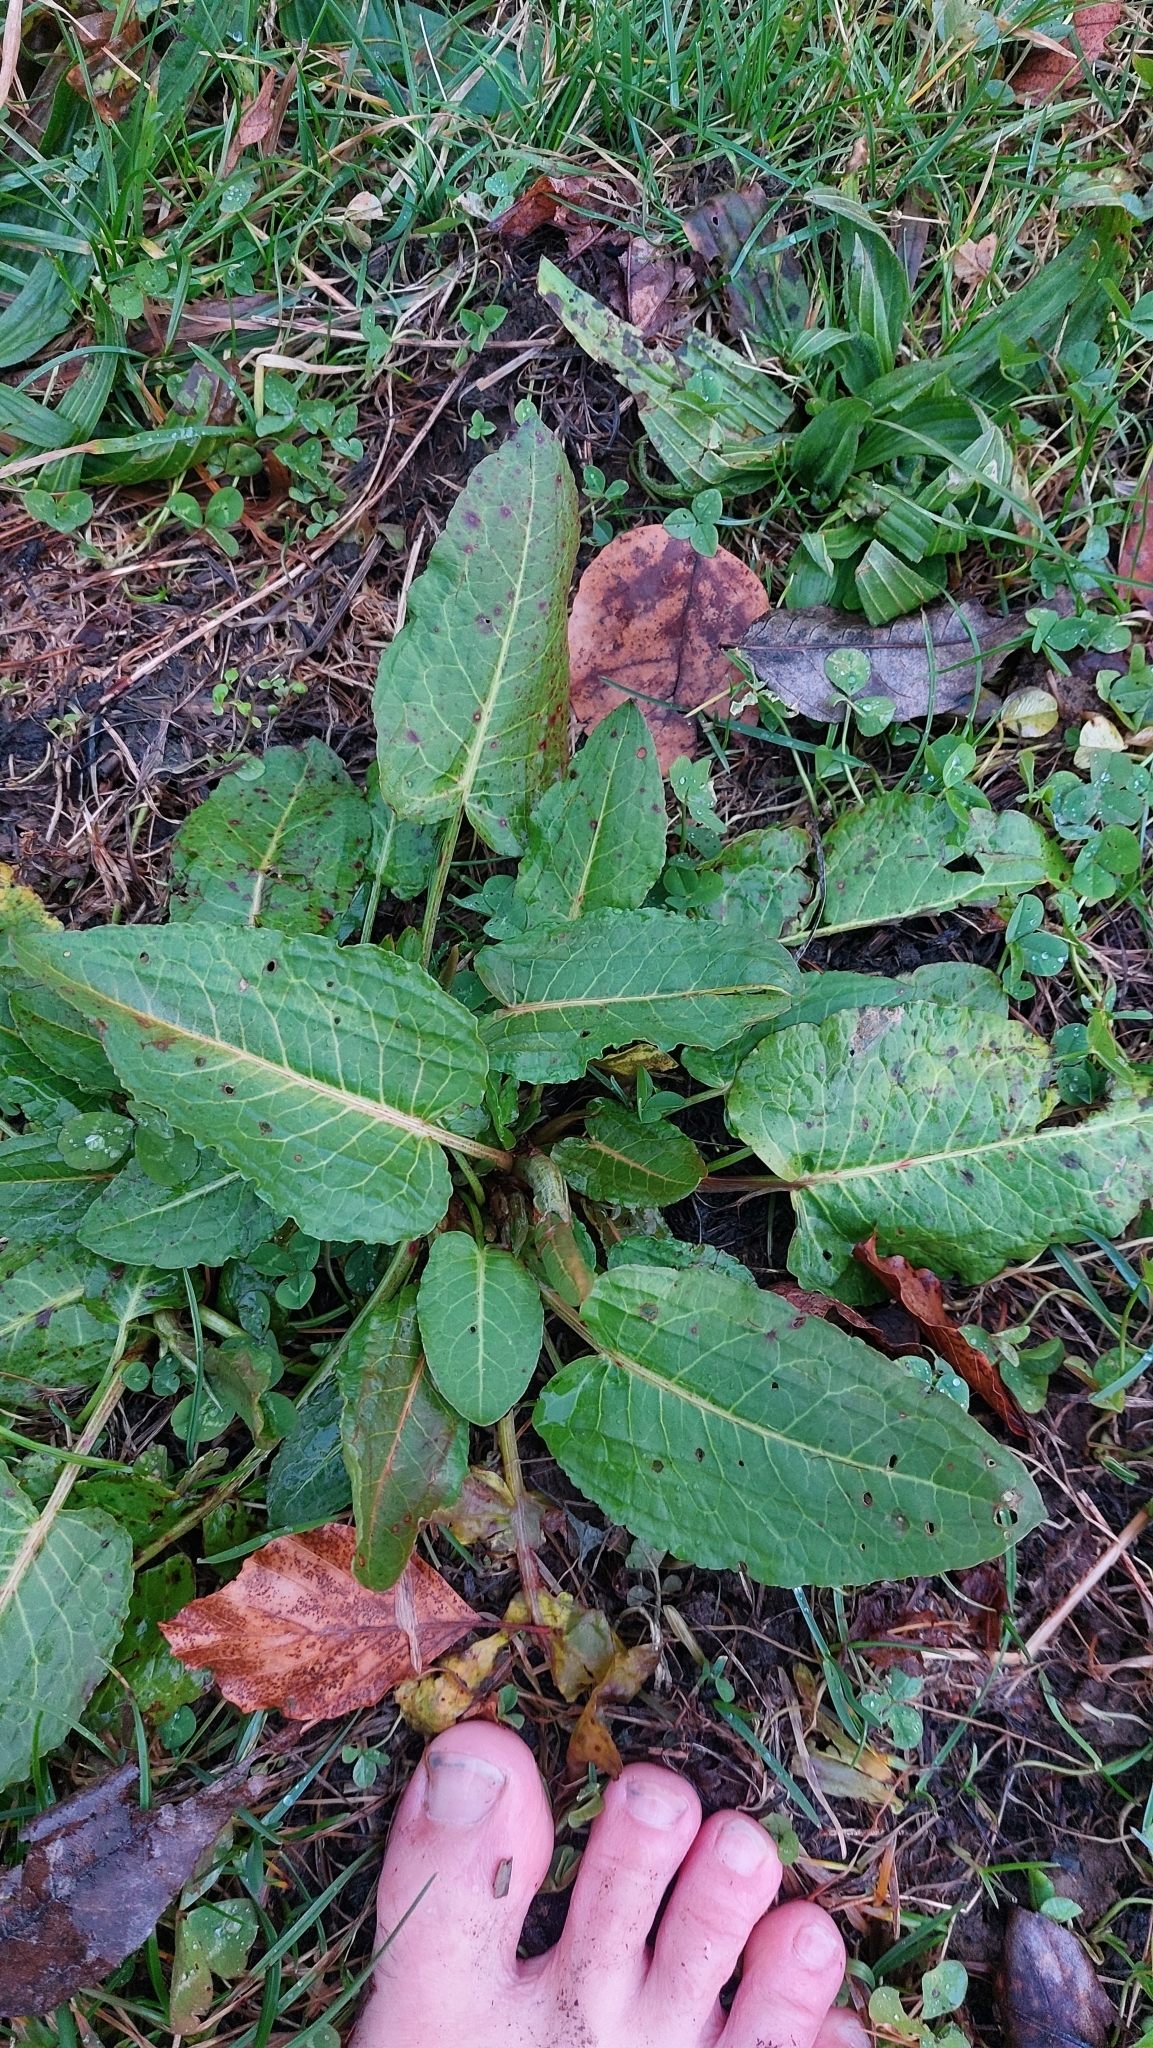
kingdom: Plantae
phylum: Tracheophyta
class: Magnoliopsida
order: Caryophyllales
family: Polygonaceae
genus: Rumex
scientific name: Rumex obtusifolius
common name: Bitter dock
